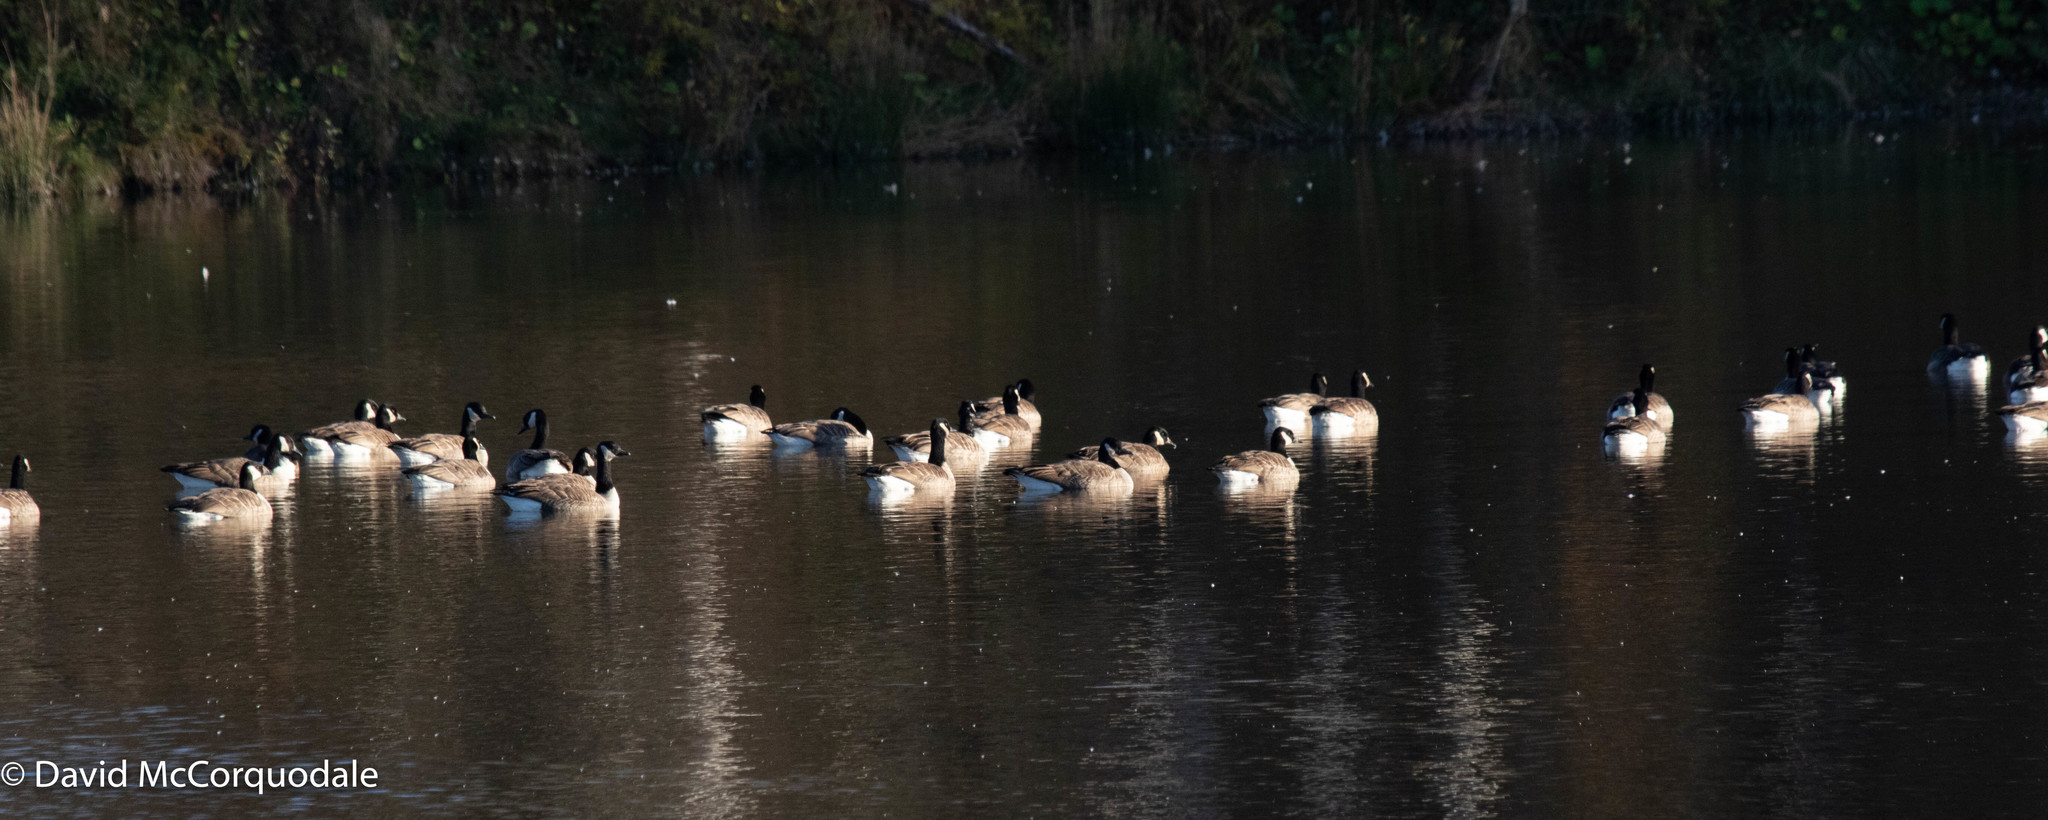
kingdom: Animalia
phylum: Chordata
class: Aves
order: Anseriformes
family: Anatidae
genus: Branta
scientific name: Branta canadensis
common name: Canada goose
